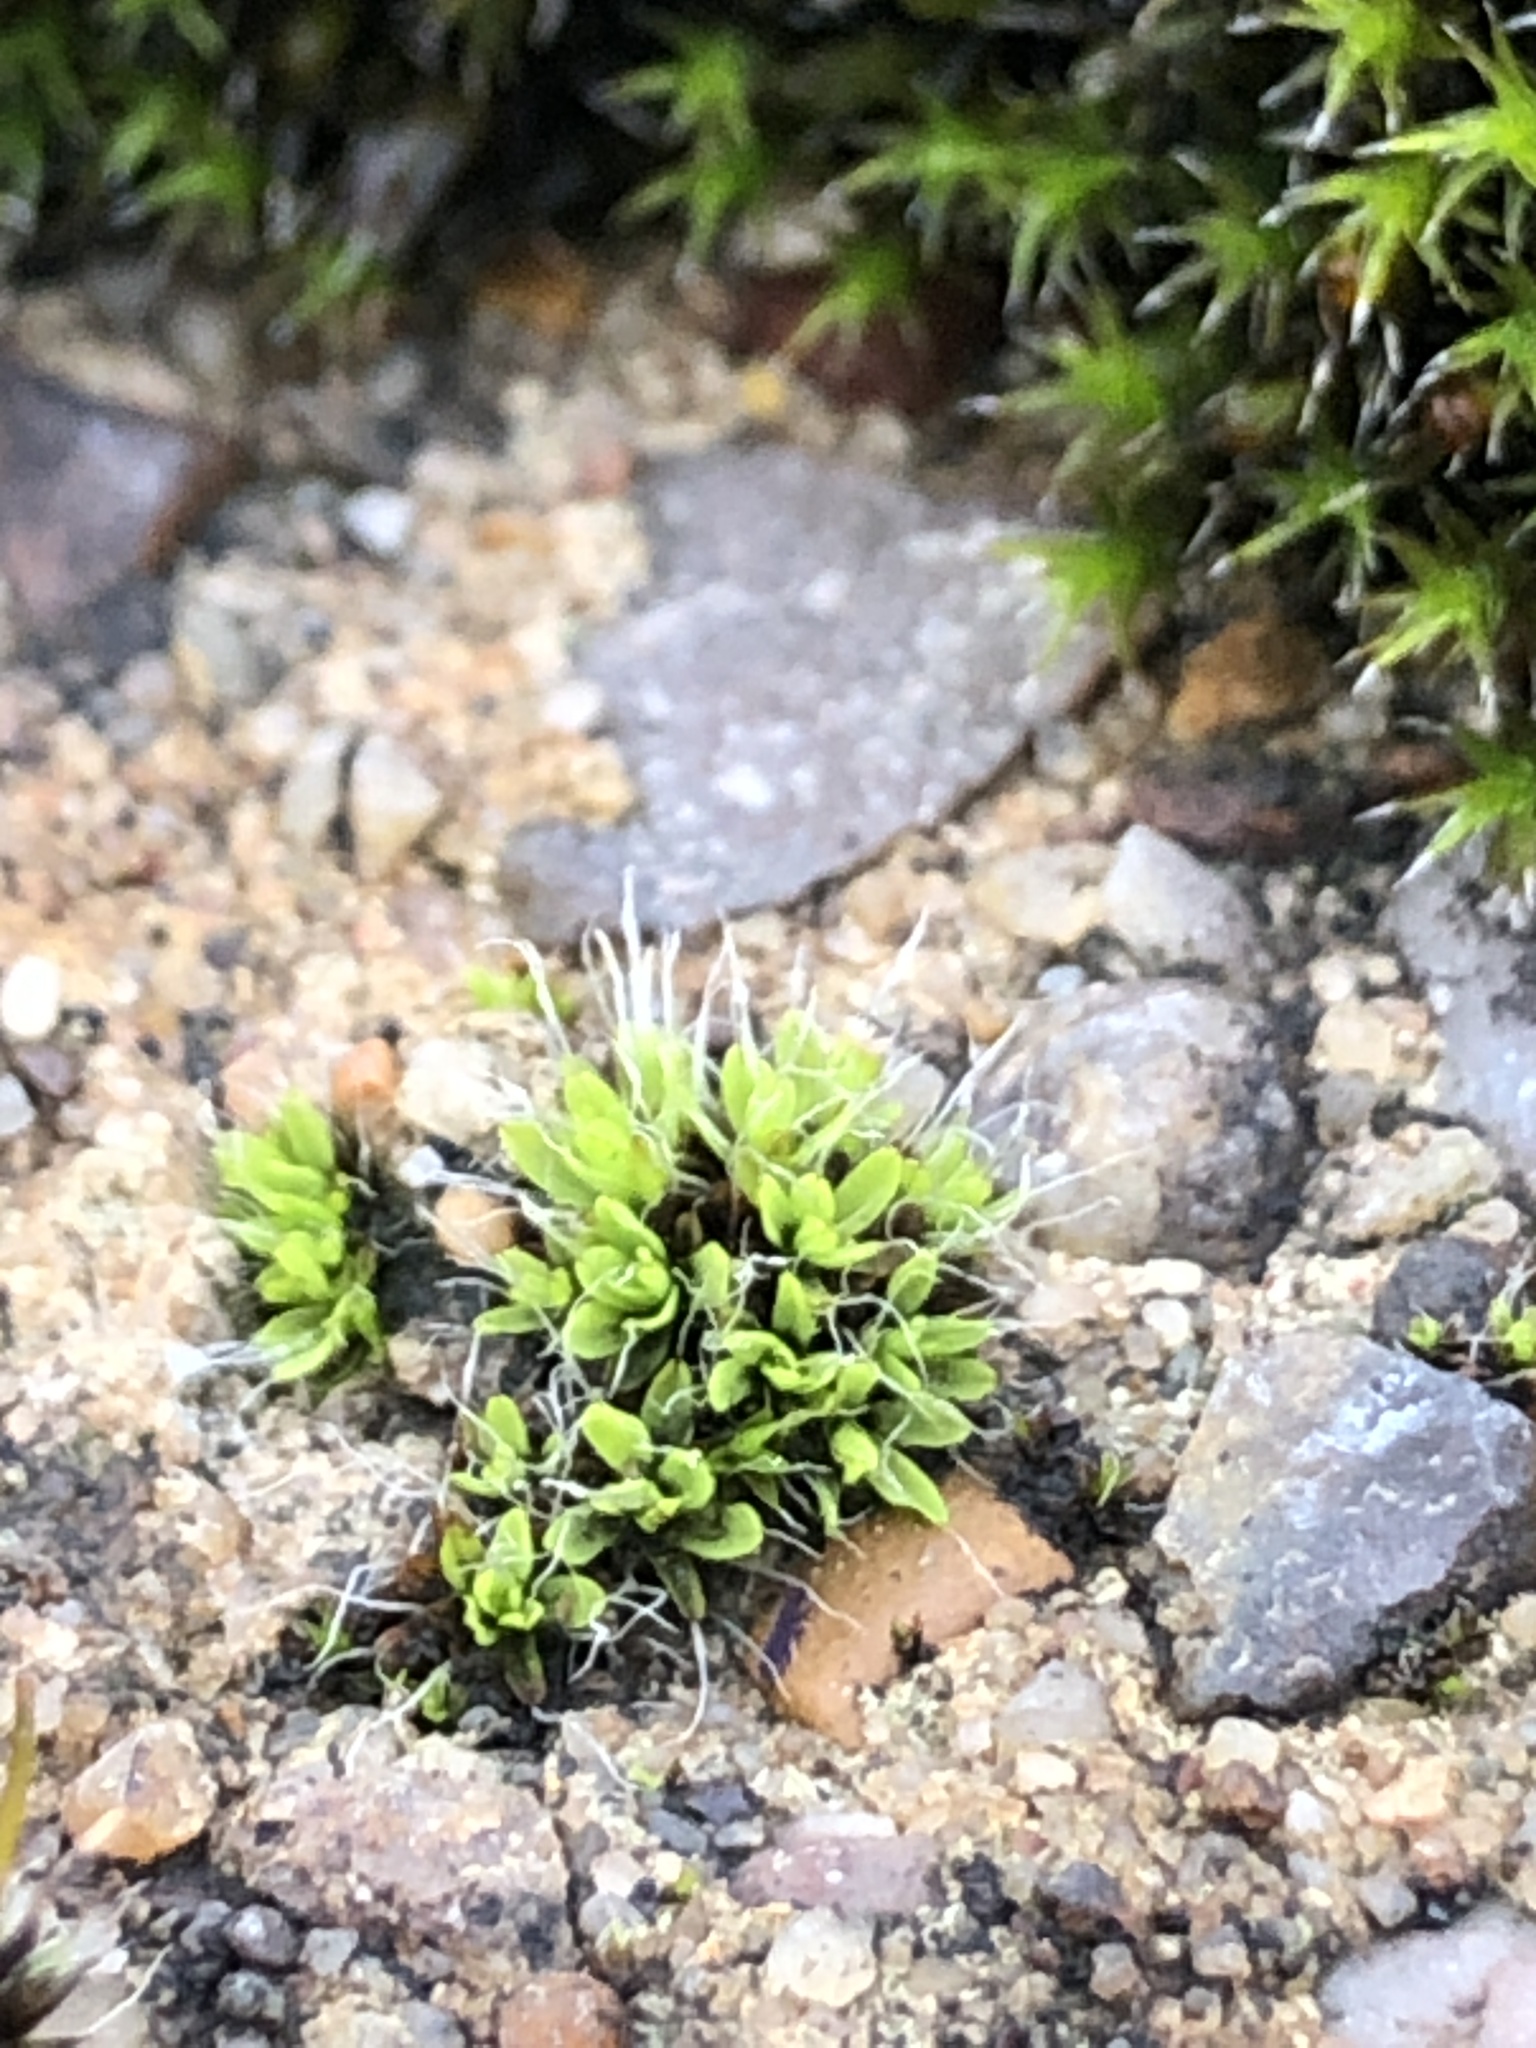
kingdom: Plantae
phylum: Bryophyta
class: Bryopsida
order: Pottiales
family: Pottiaceae
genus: Tortula
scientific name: Tortula muralis
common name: Wall screw-moss
